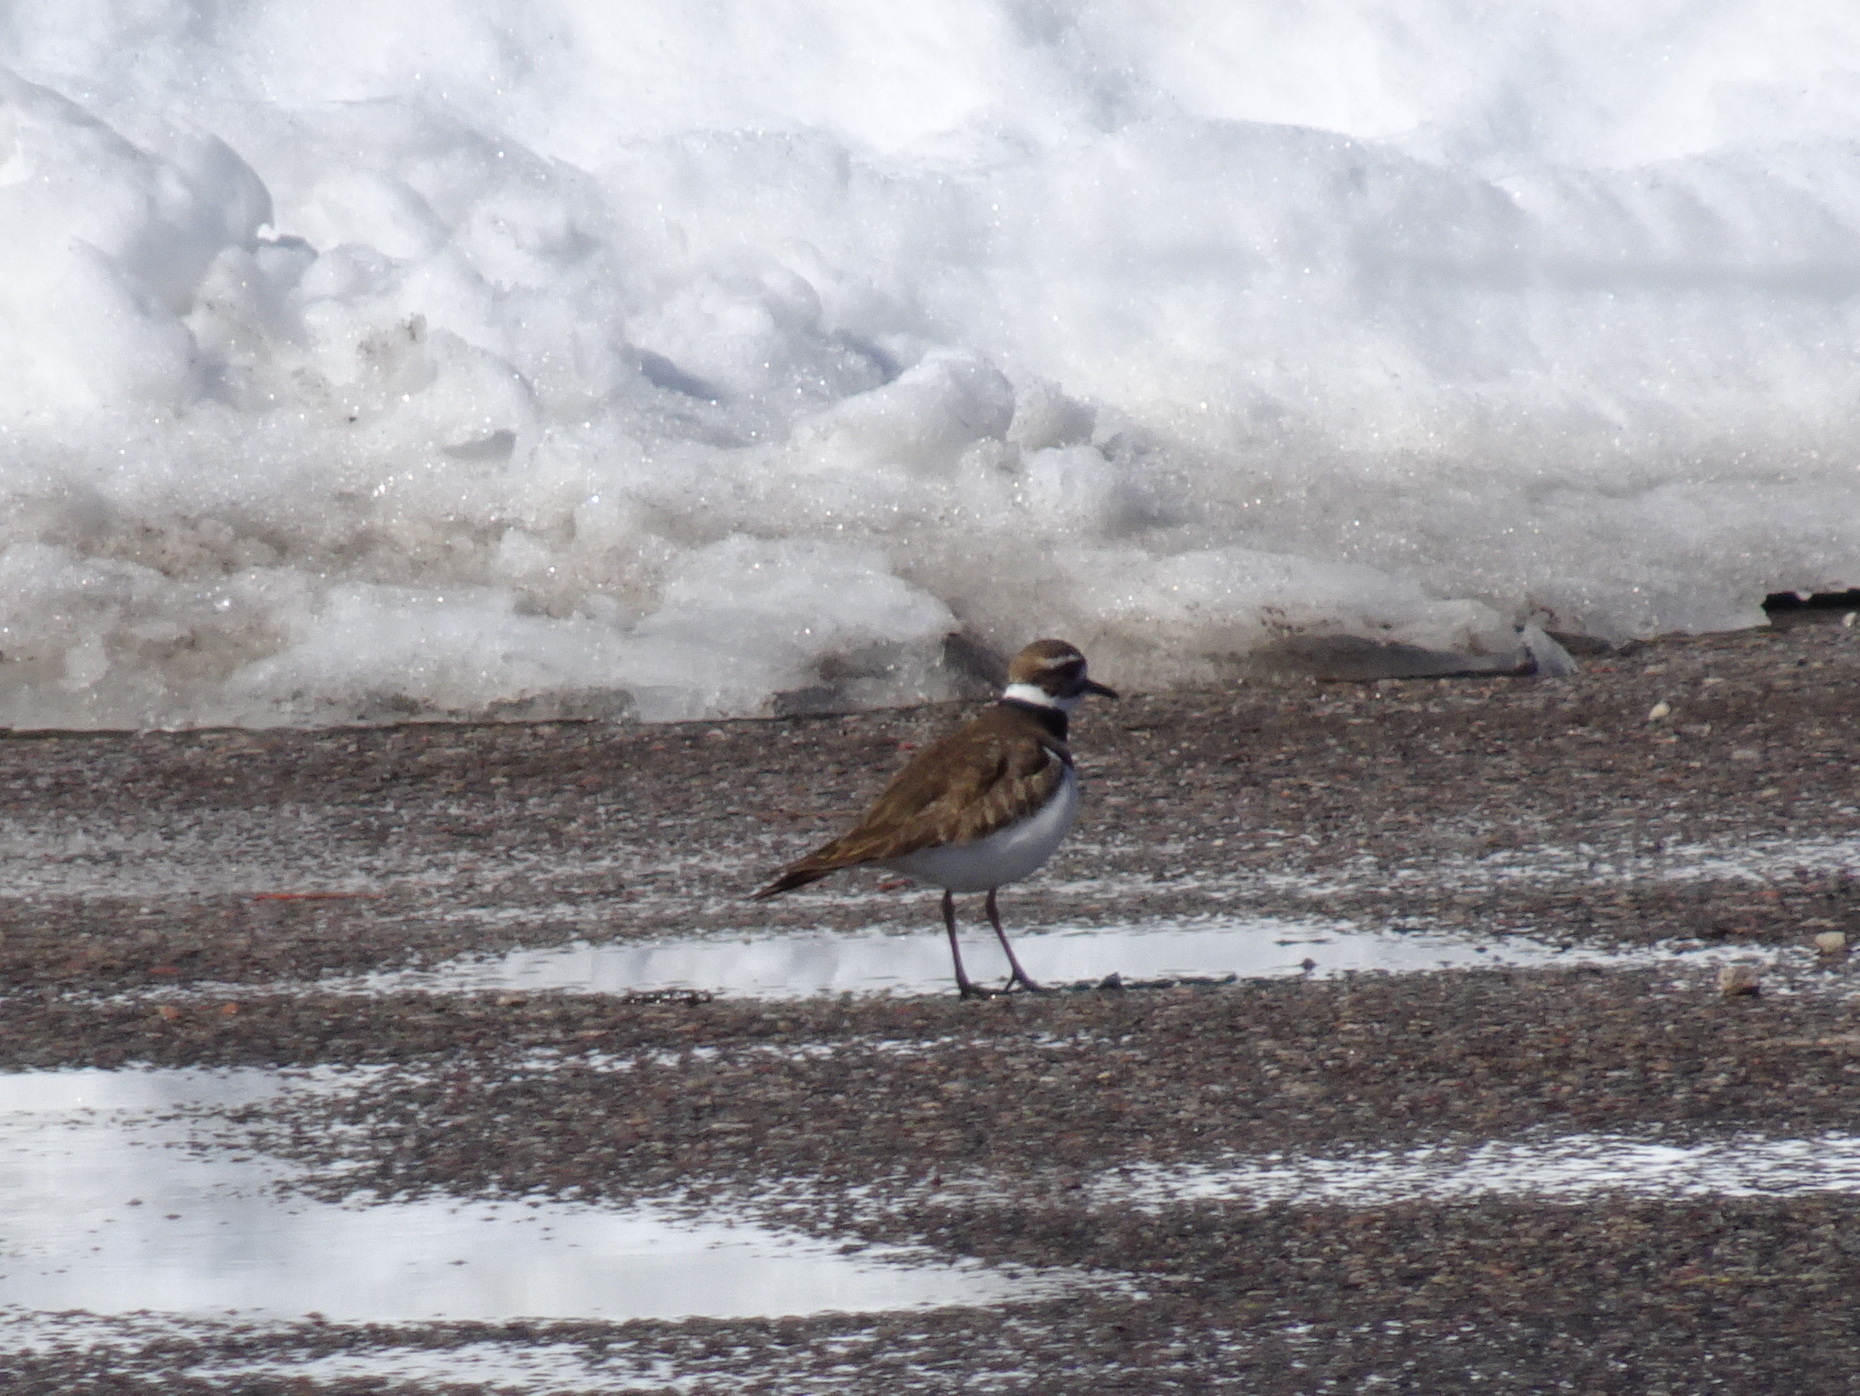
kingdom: Animalia
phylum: Chordata
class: Aves
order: Charadriiformes
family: Charadriidae
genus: Charadrius
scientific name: Charadrius vociferus
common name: Killdeer
